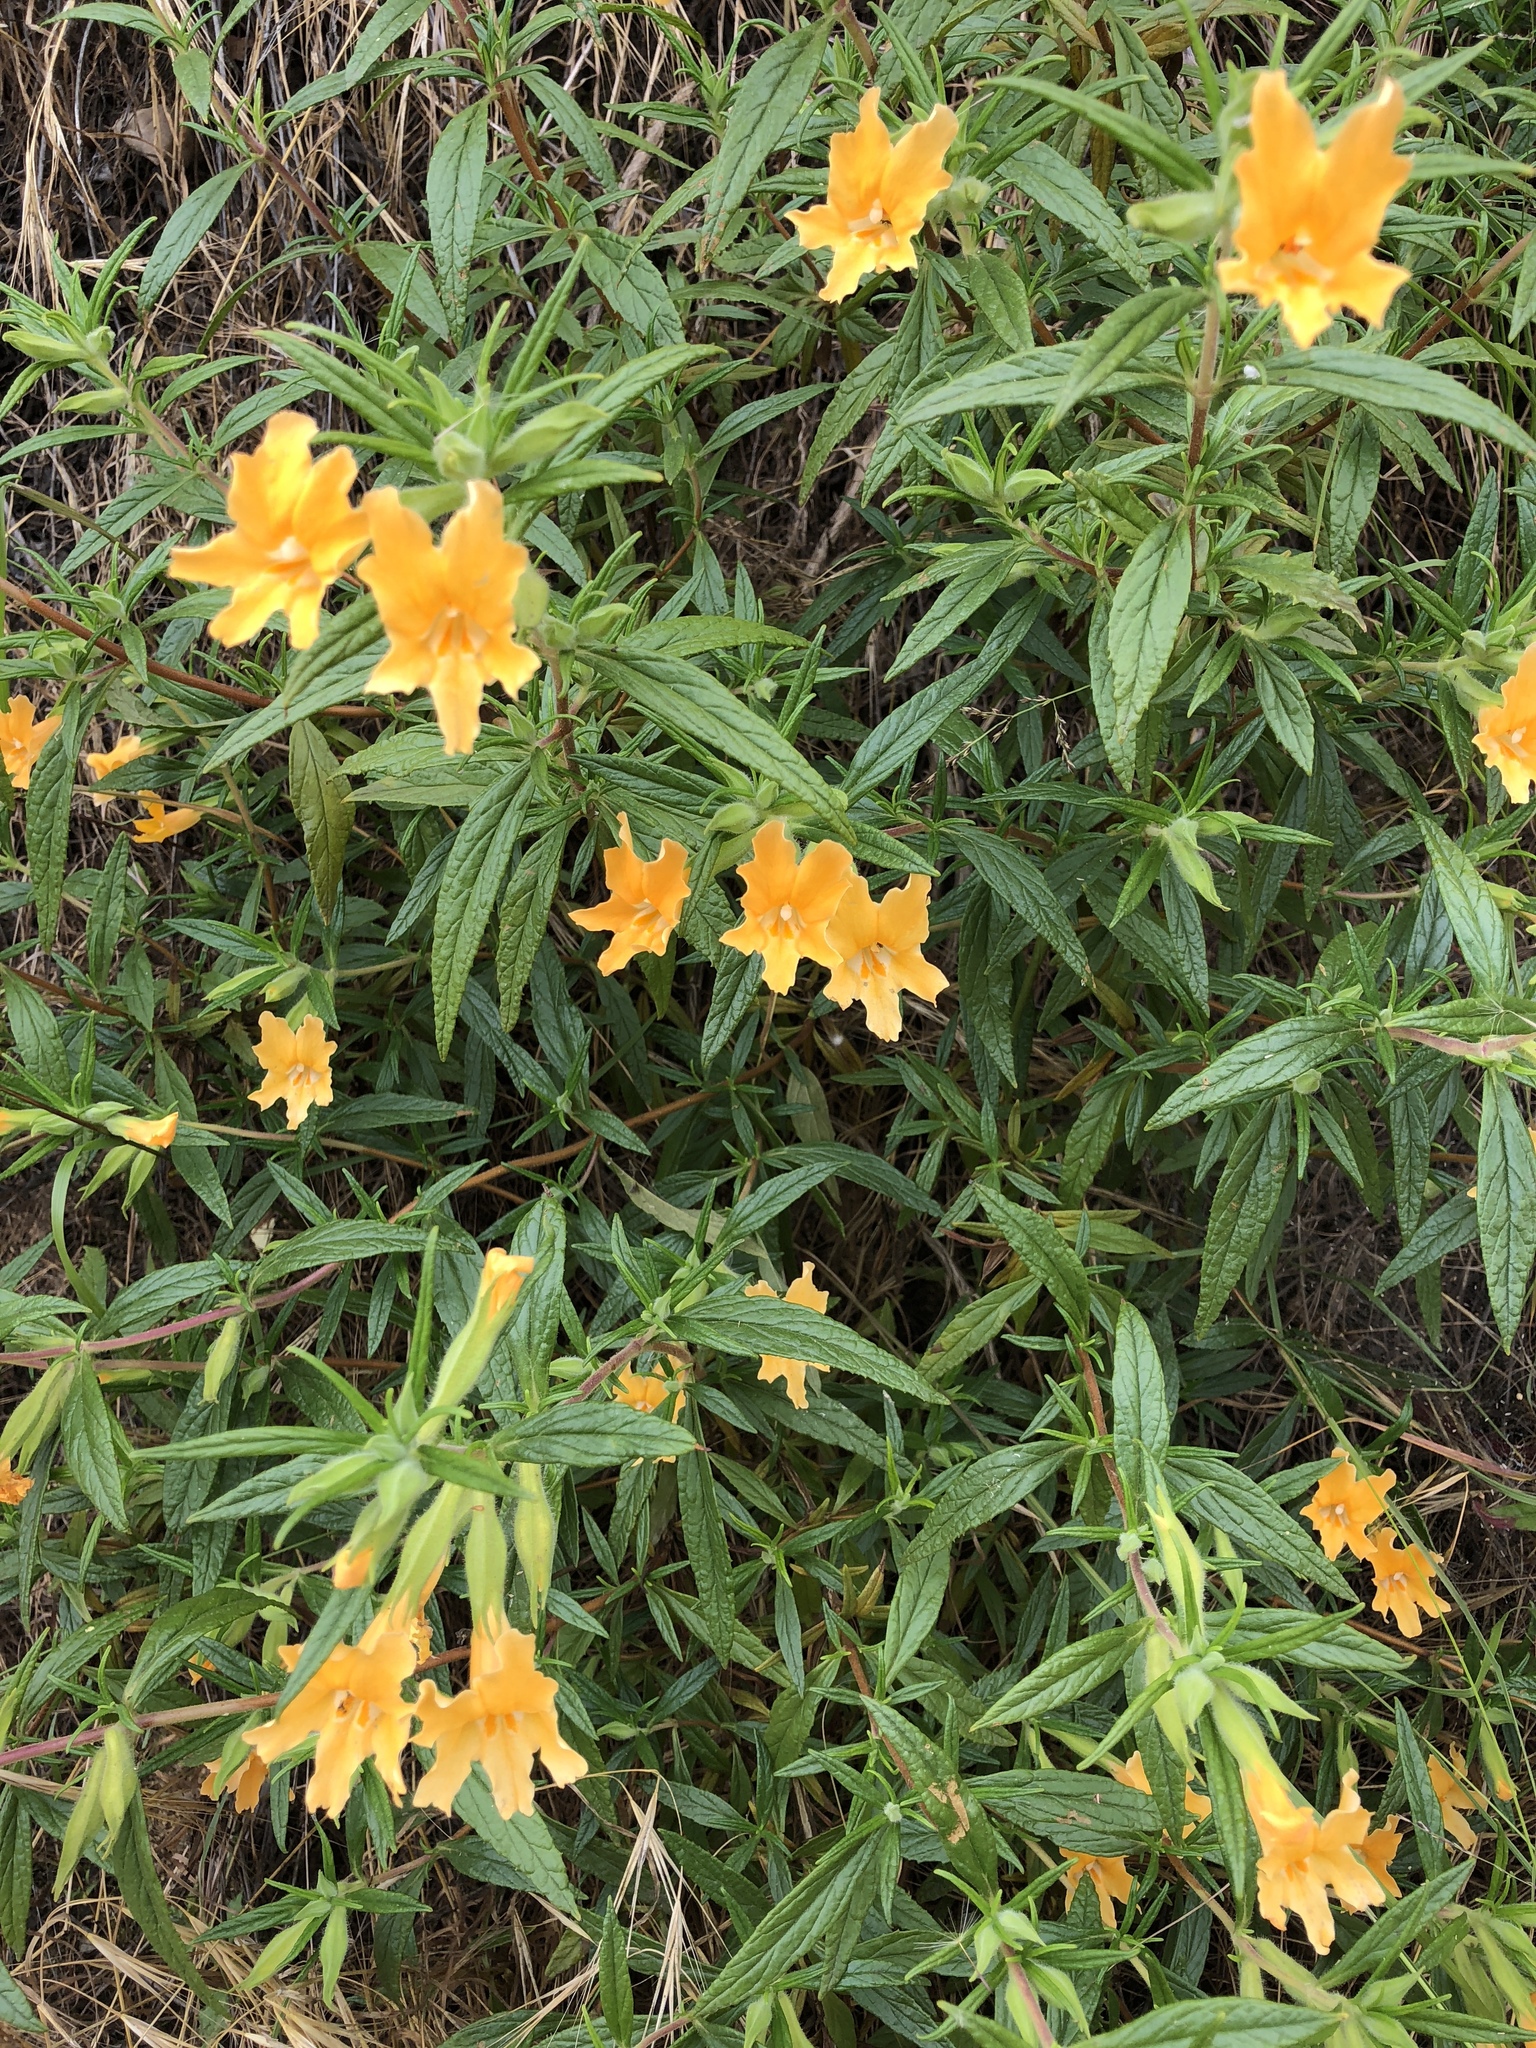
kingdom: Plantae
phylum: Tracheophyta
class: Magnoliopsida
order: Lamiales
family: Phrymaceae
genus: Diplacus
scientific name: Diplacus longiflorus
